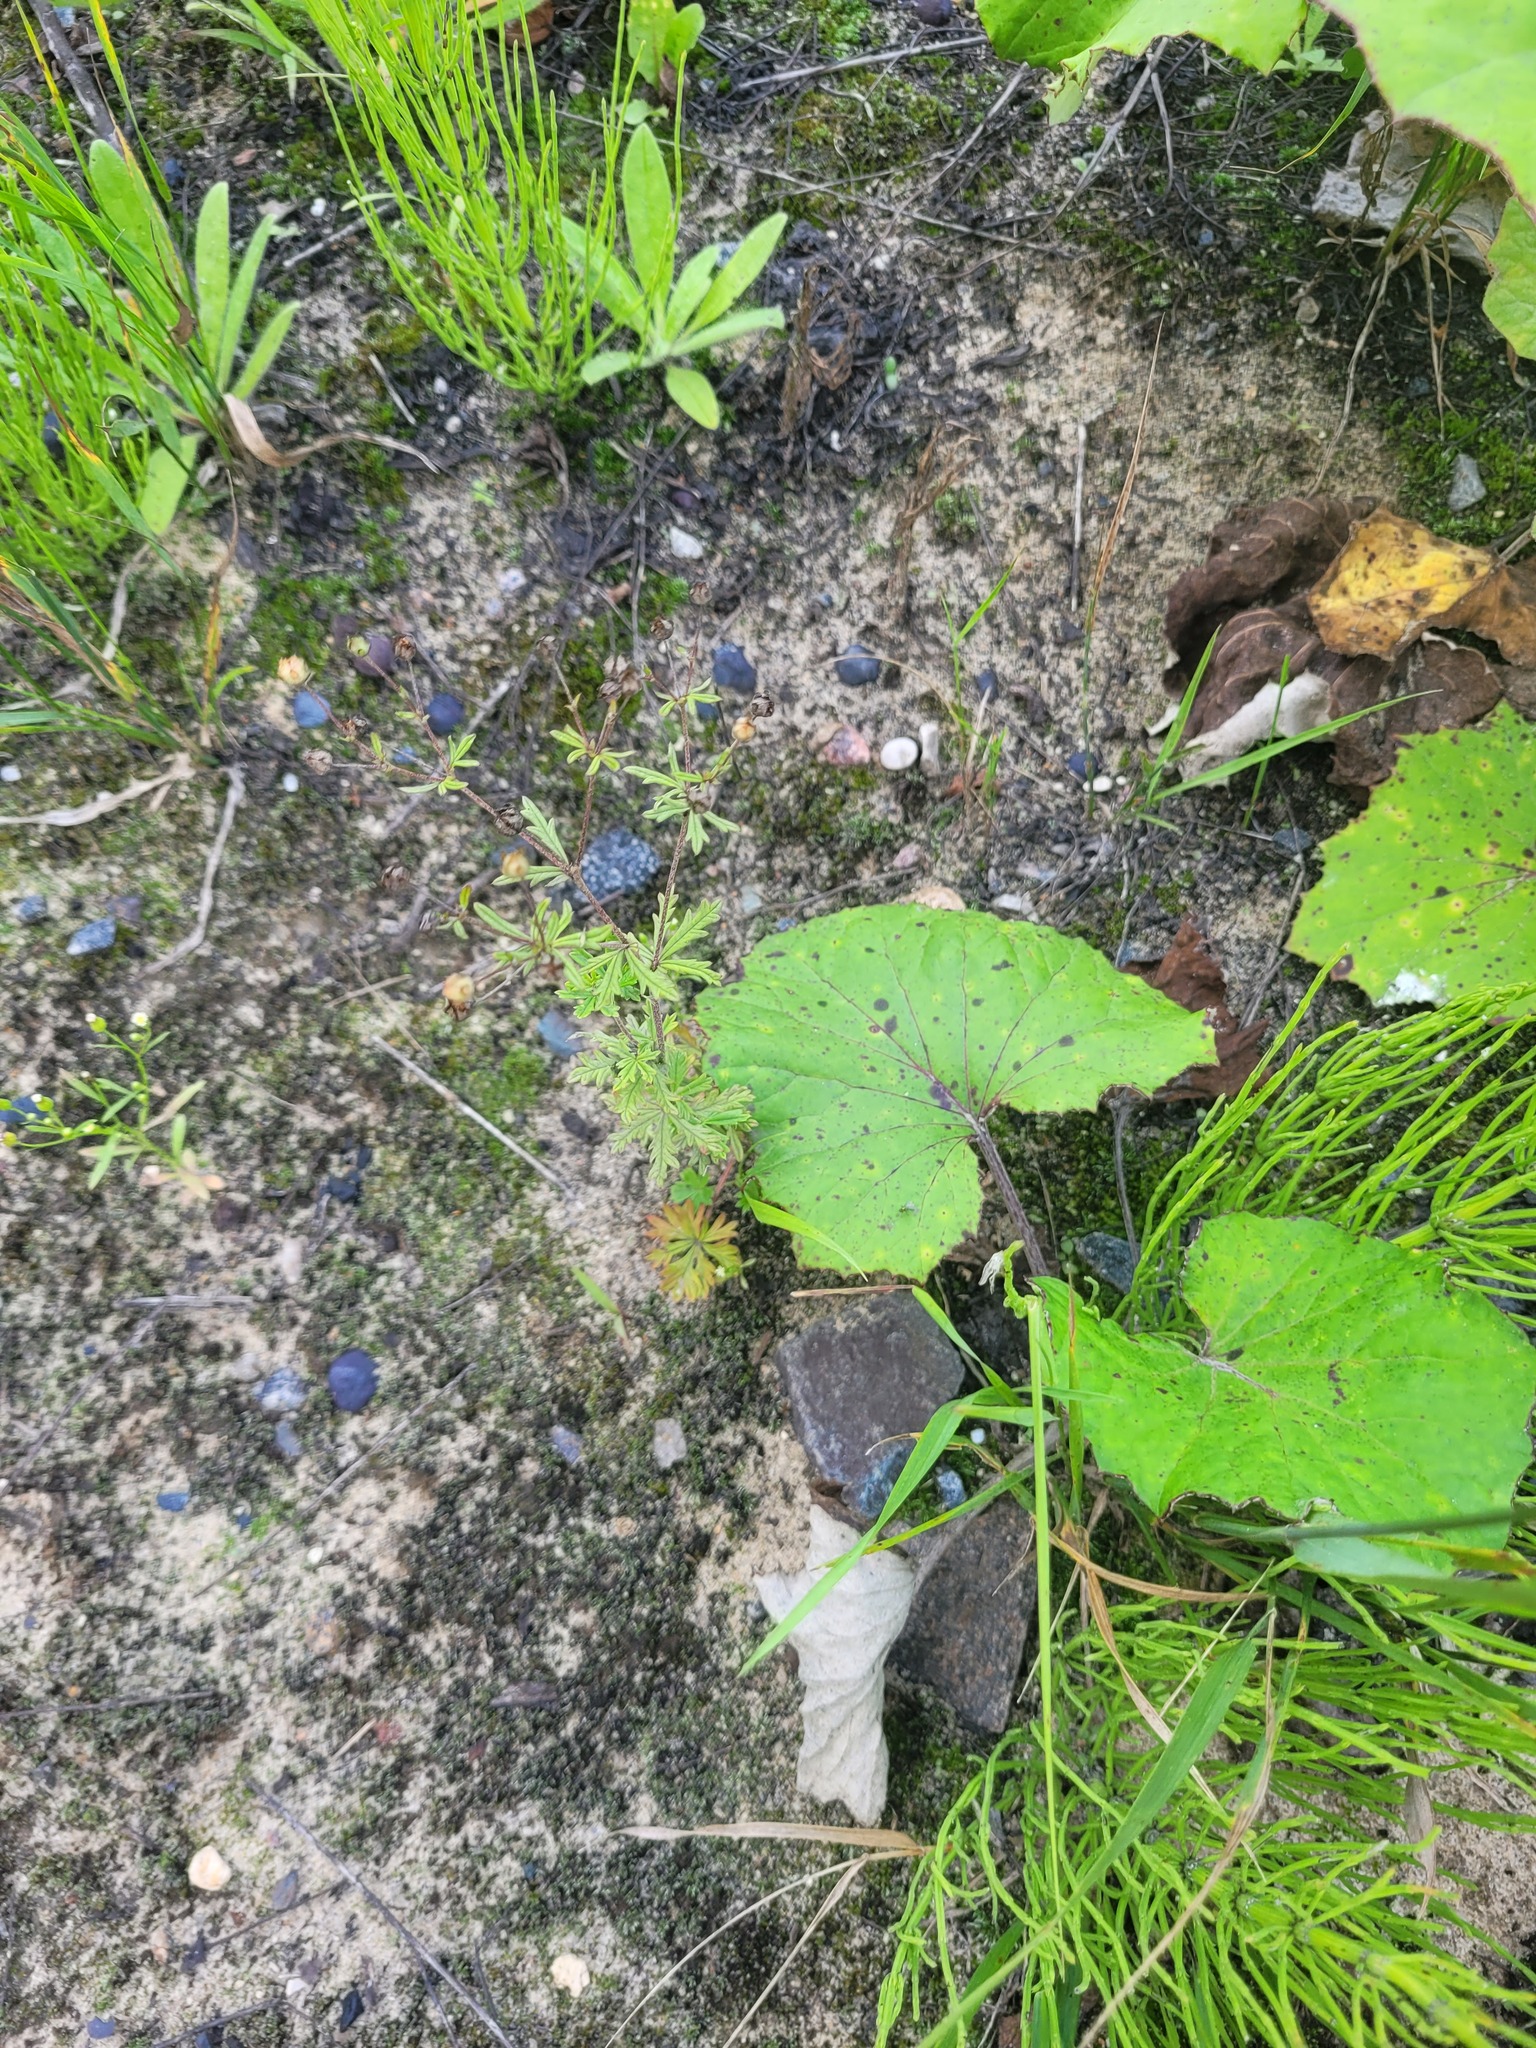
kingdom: Plantae
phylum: Tracheophyta
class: Magnoliopsida
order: Rosales
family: Rosaceae
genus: Potentilla
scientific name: Potentilla argentea
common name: Hoary cinquefoil
